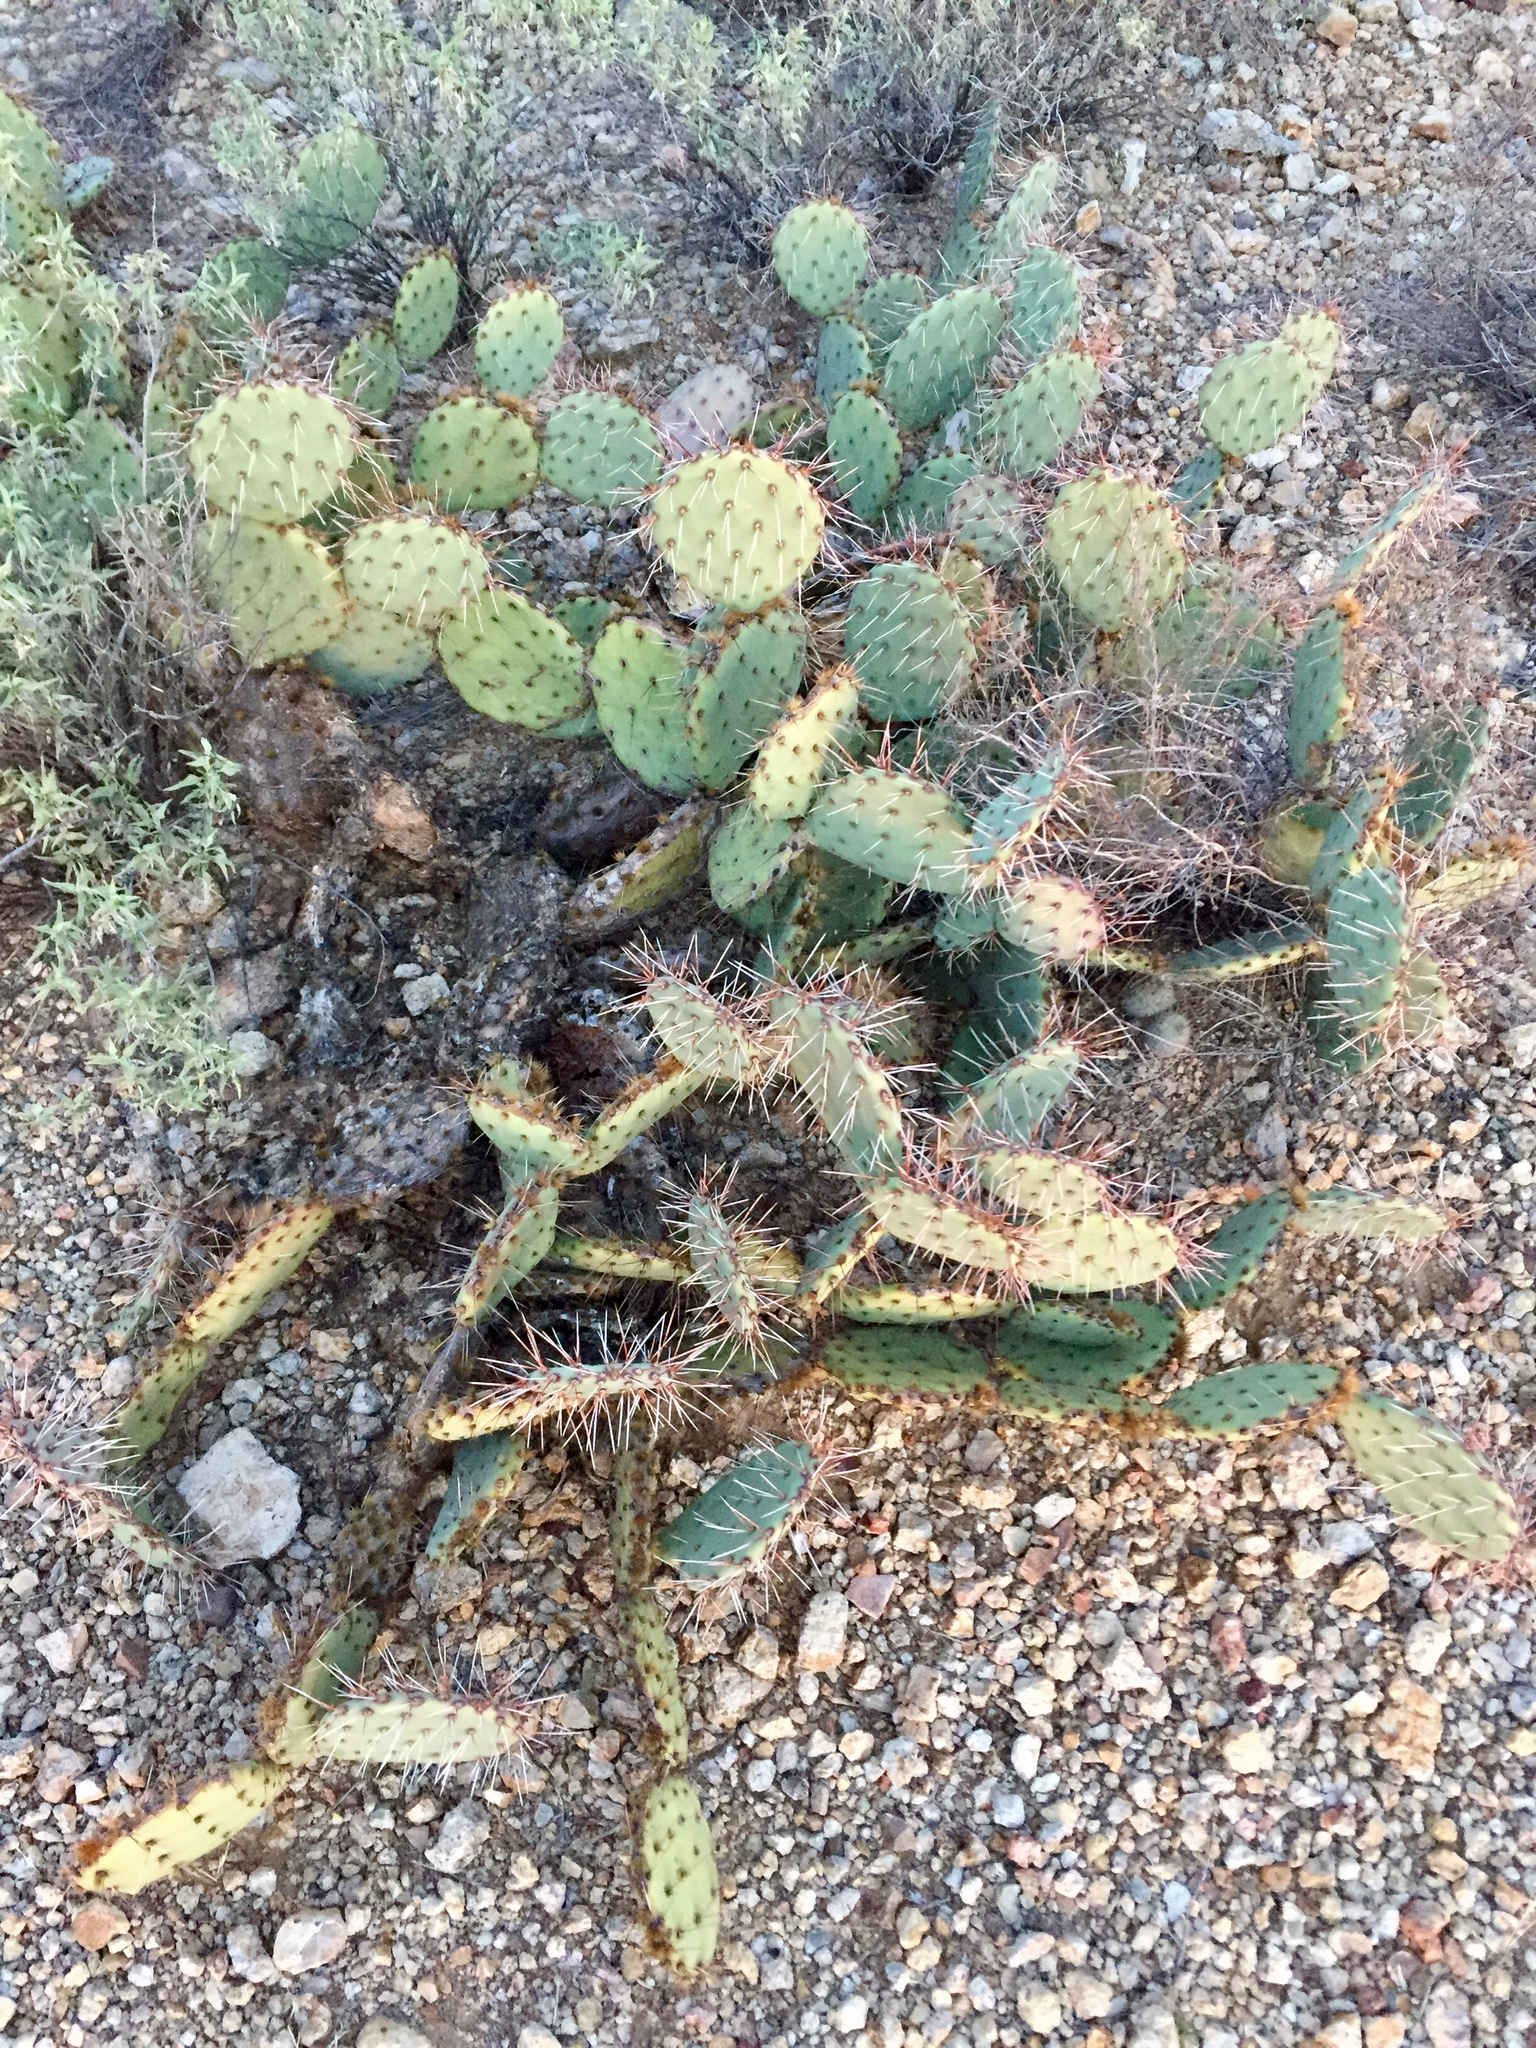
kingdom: Plantae
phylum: Tracheophyta
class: Magnoliopsida
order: Caryophyllales
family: Cactaceae
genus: Opuntia
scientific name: Opuntia phaeacantha
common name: New mexico prickly-pear
